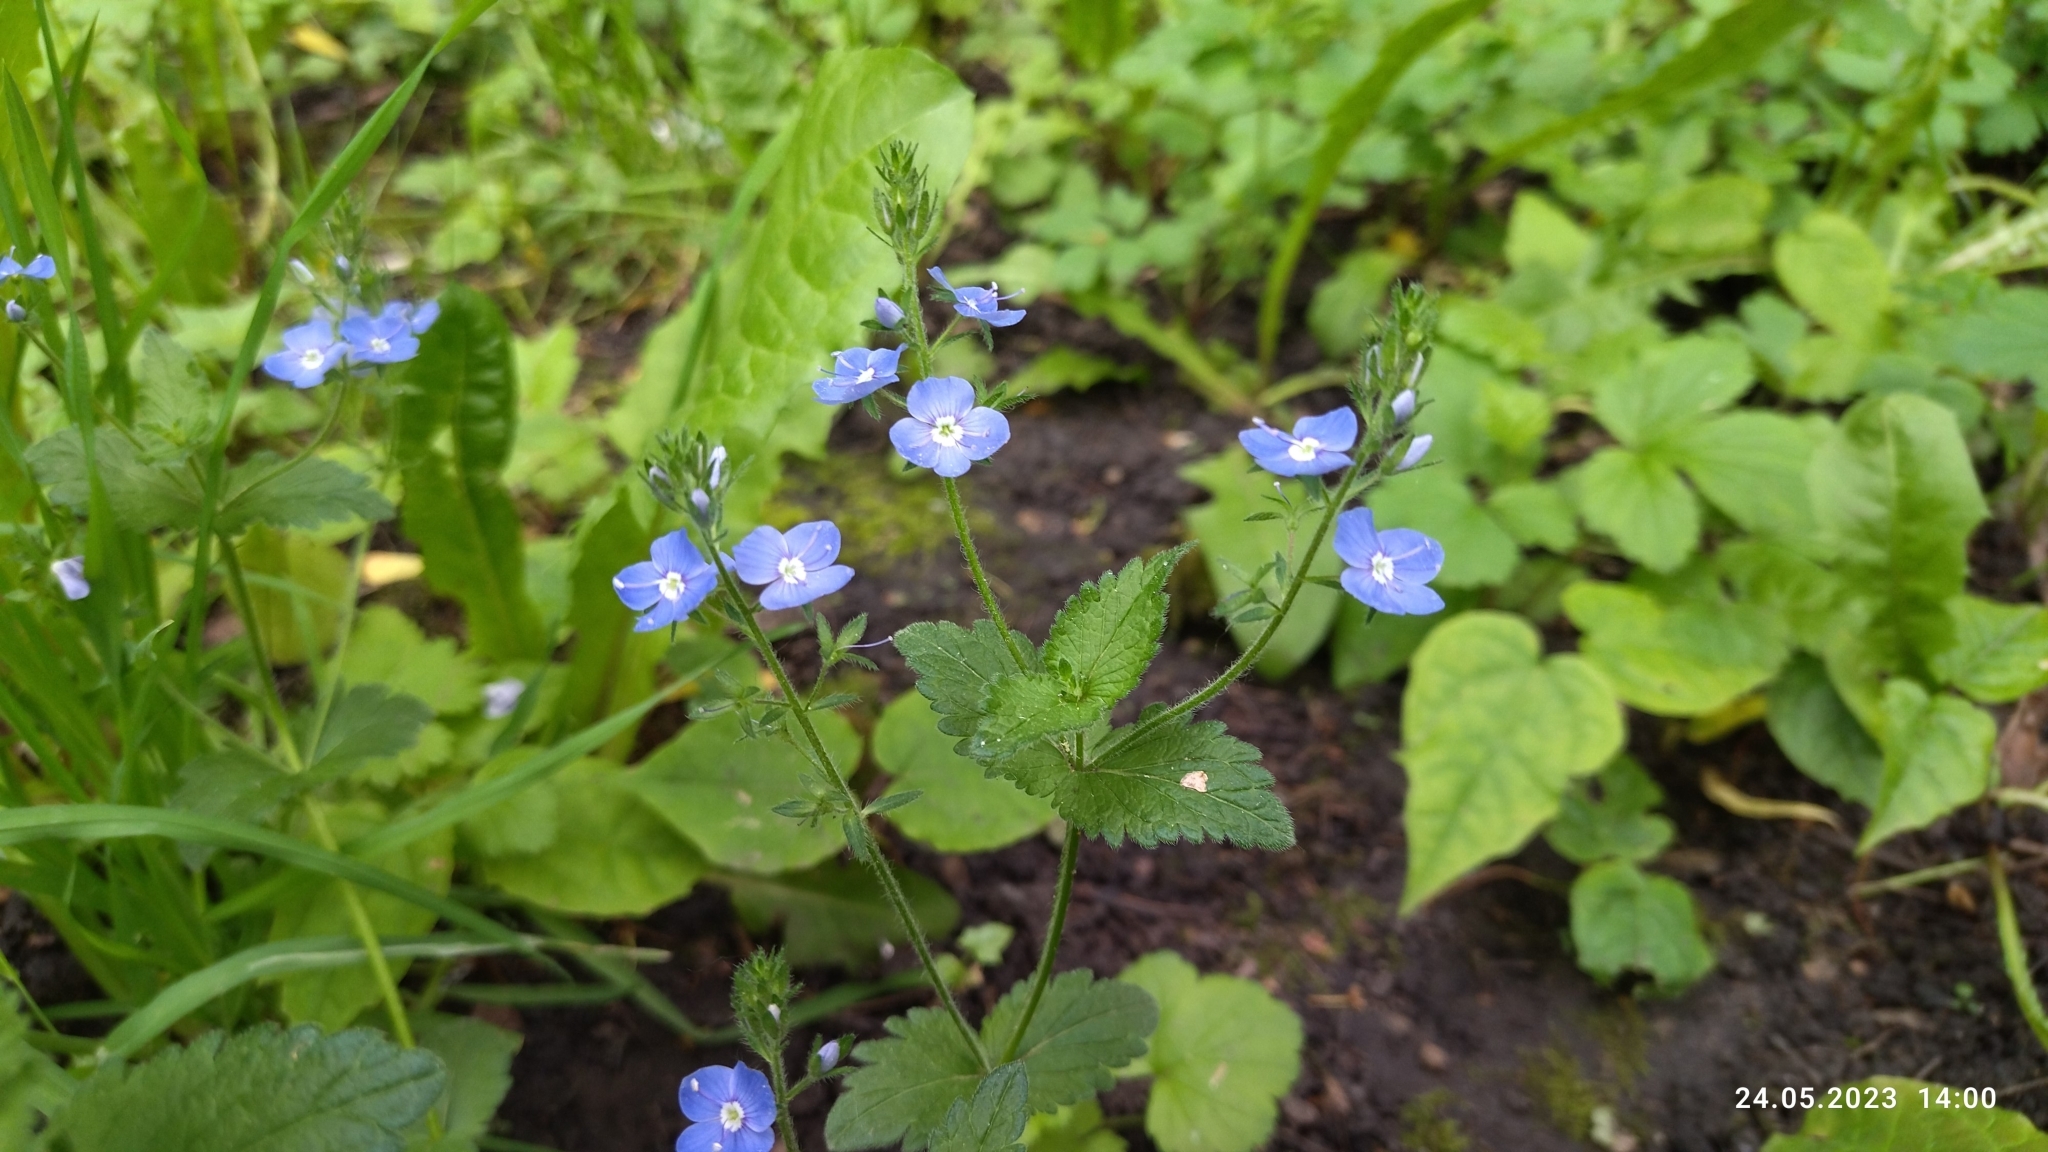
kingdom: Plantae
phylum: Tracheophyta
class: Magnoliopsida
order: Lamiales
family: Plantaginaceae
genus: Veronica
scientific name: Veronica chamaedrys
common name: Germander speedwell
